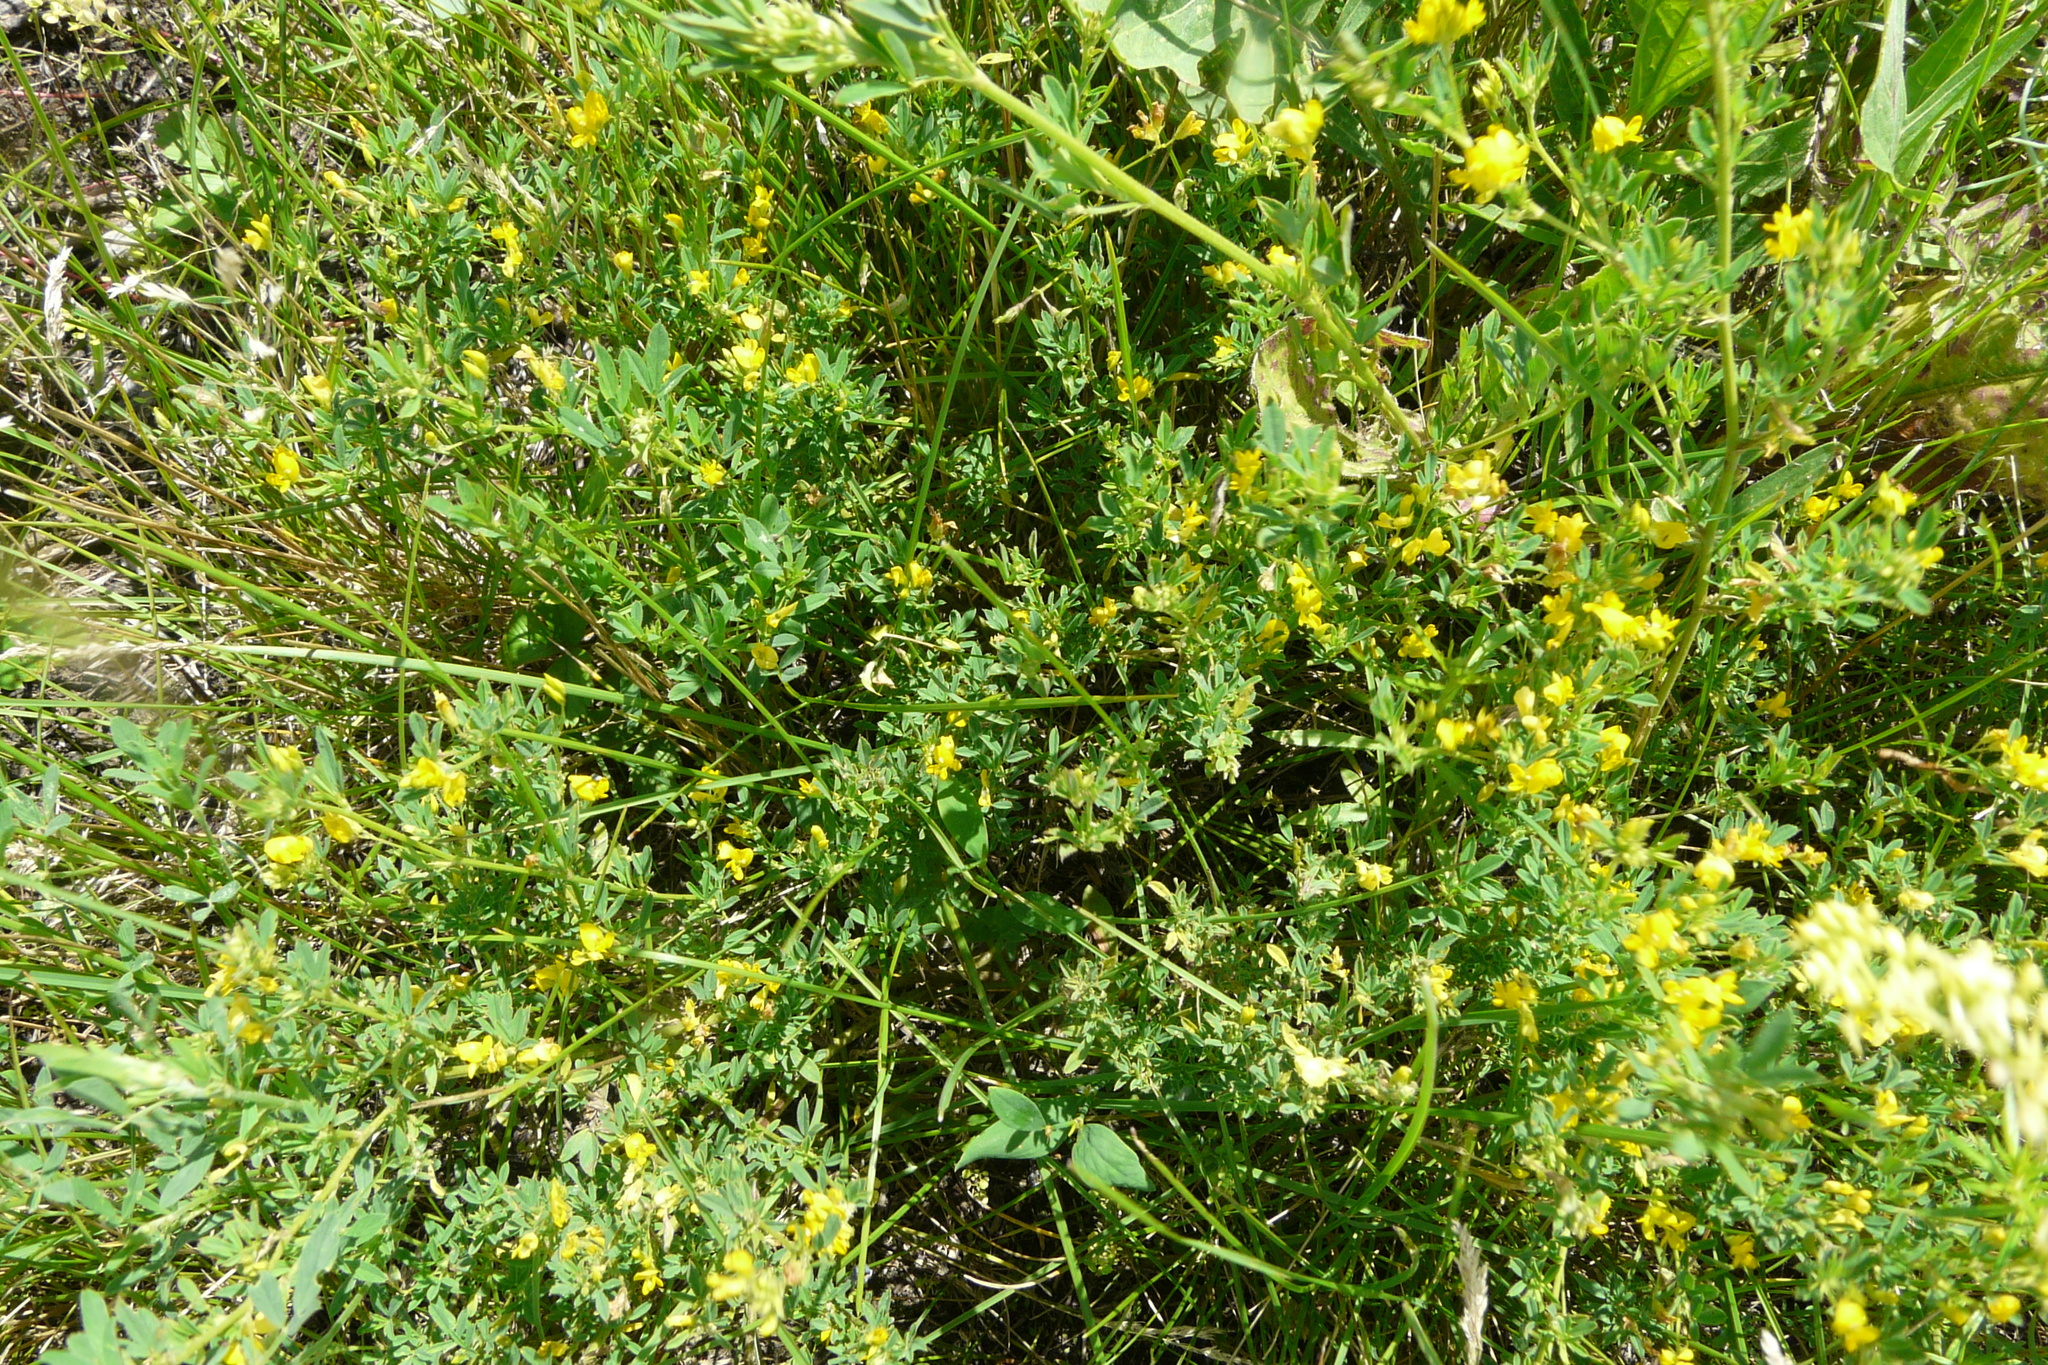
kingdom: Plantae
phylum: Tracheophyta
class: Magnoliopsida
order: Fabales
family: Fabaceae
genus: Medicago
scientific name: Medicago falcata
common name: Sickle medick
